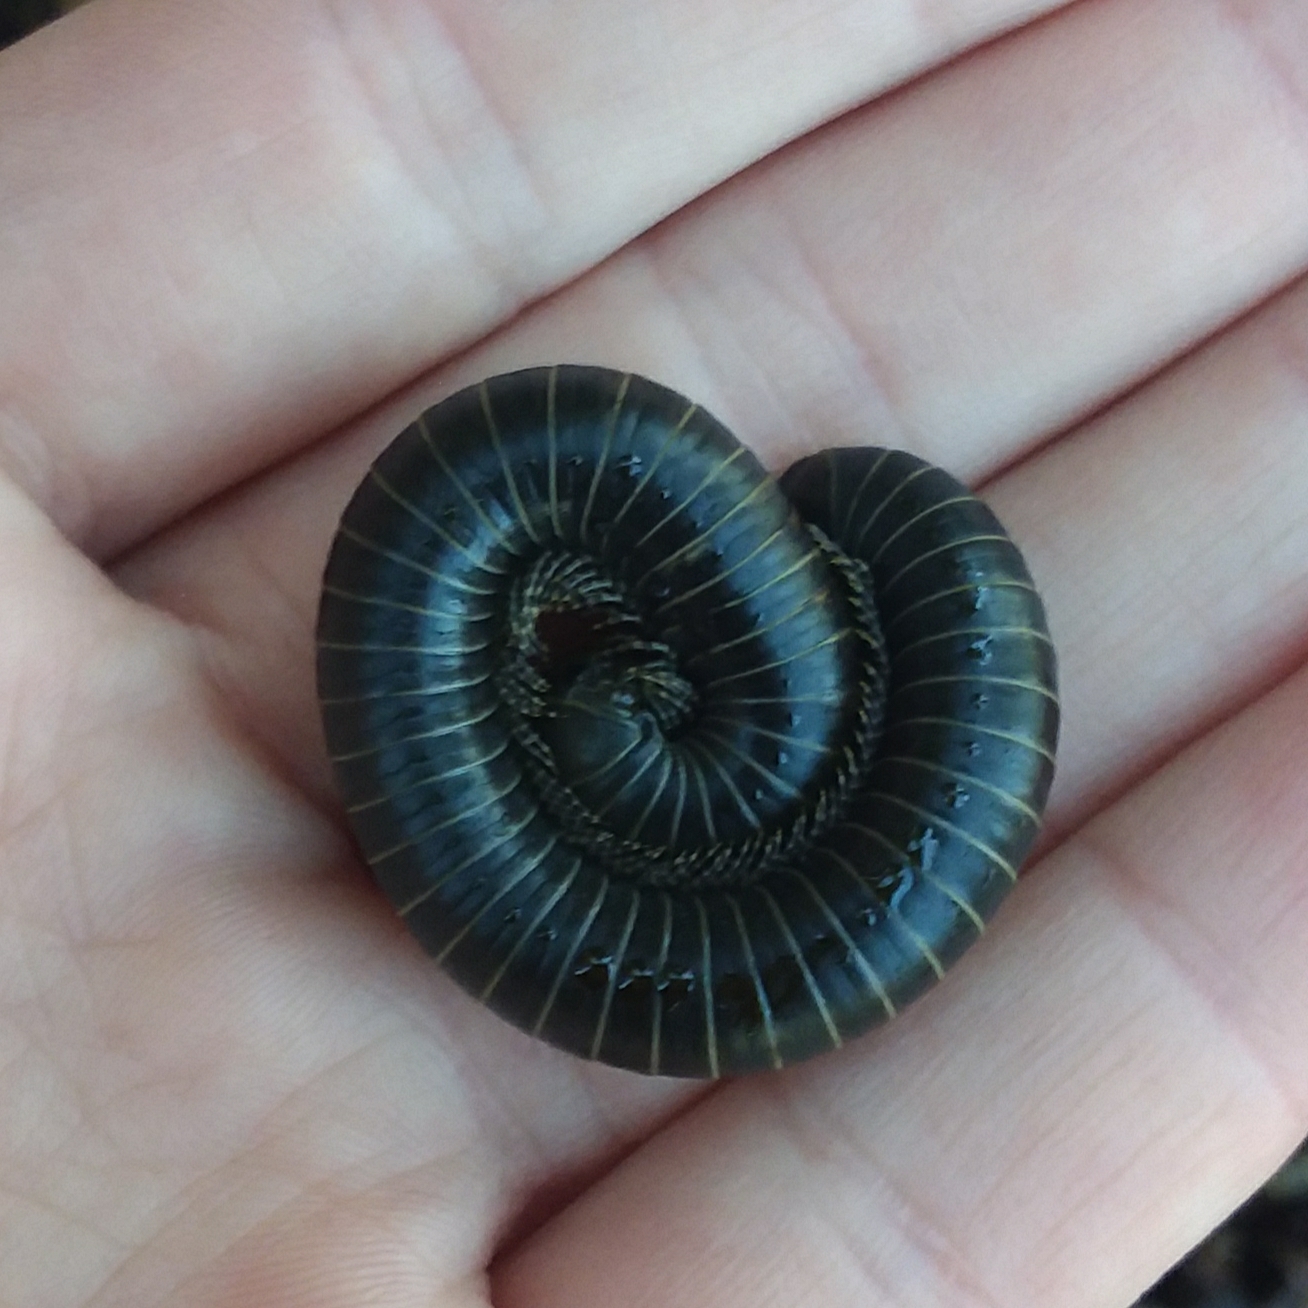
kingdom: Animalia
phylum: Arthropoda
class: Diplopoda
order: Spirobolida
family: Spirobolidae
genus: Tylobolus
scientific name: Tylobolus uncigerus
